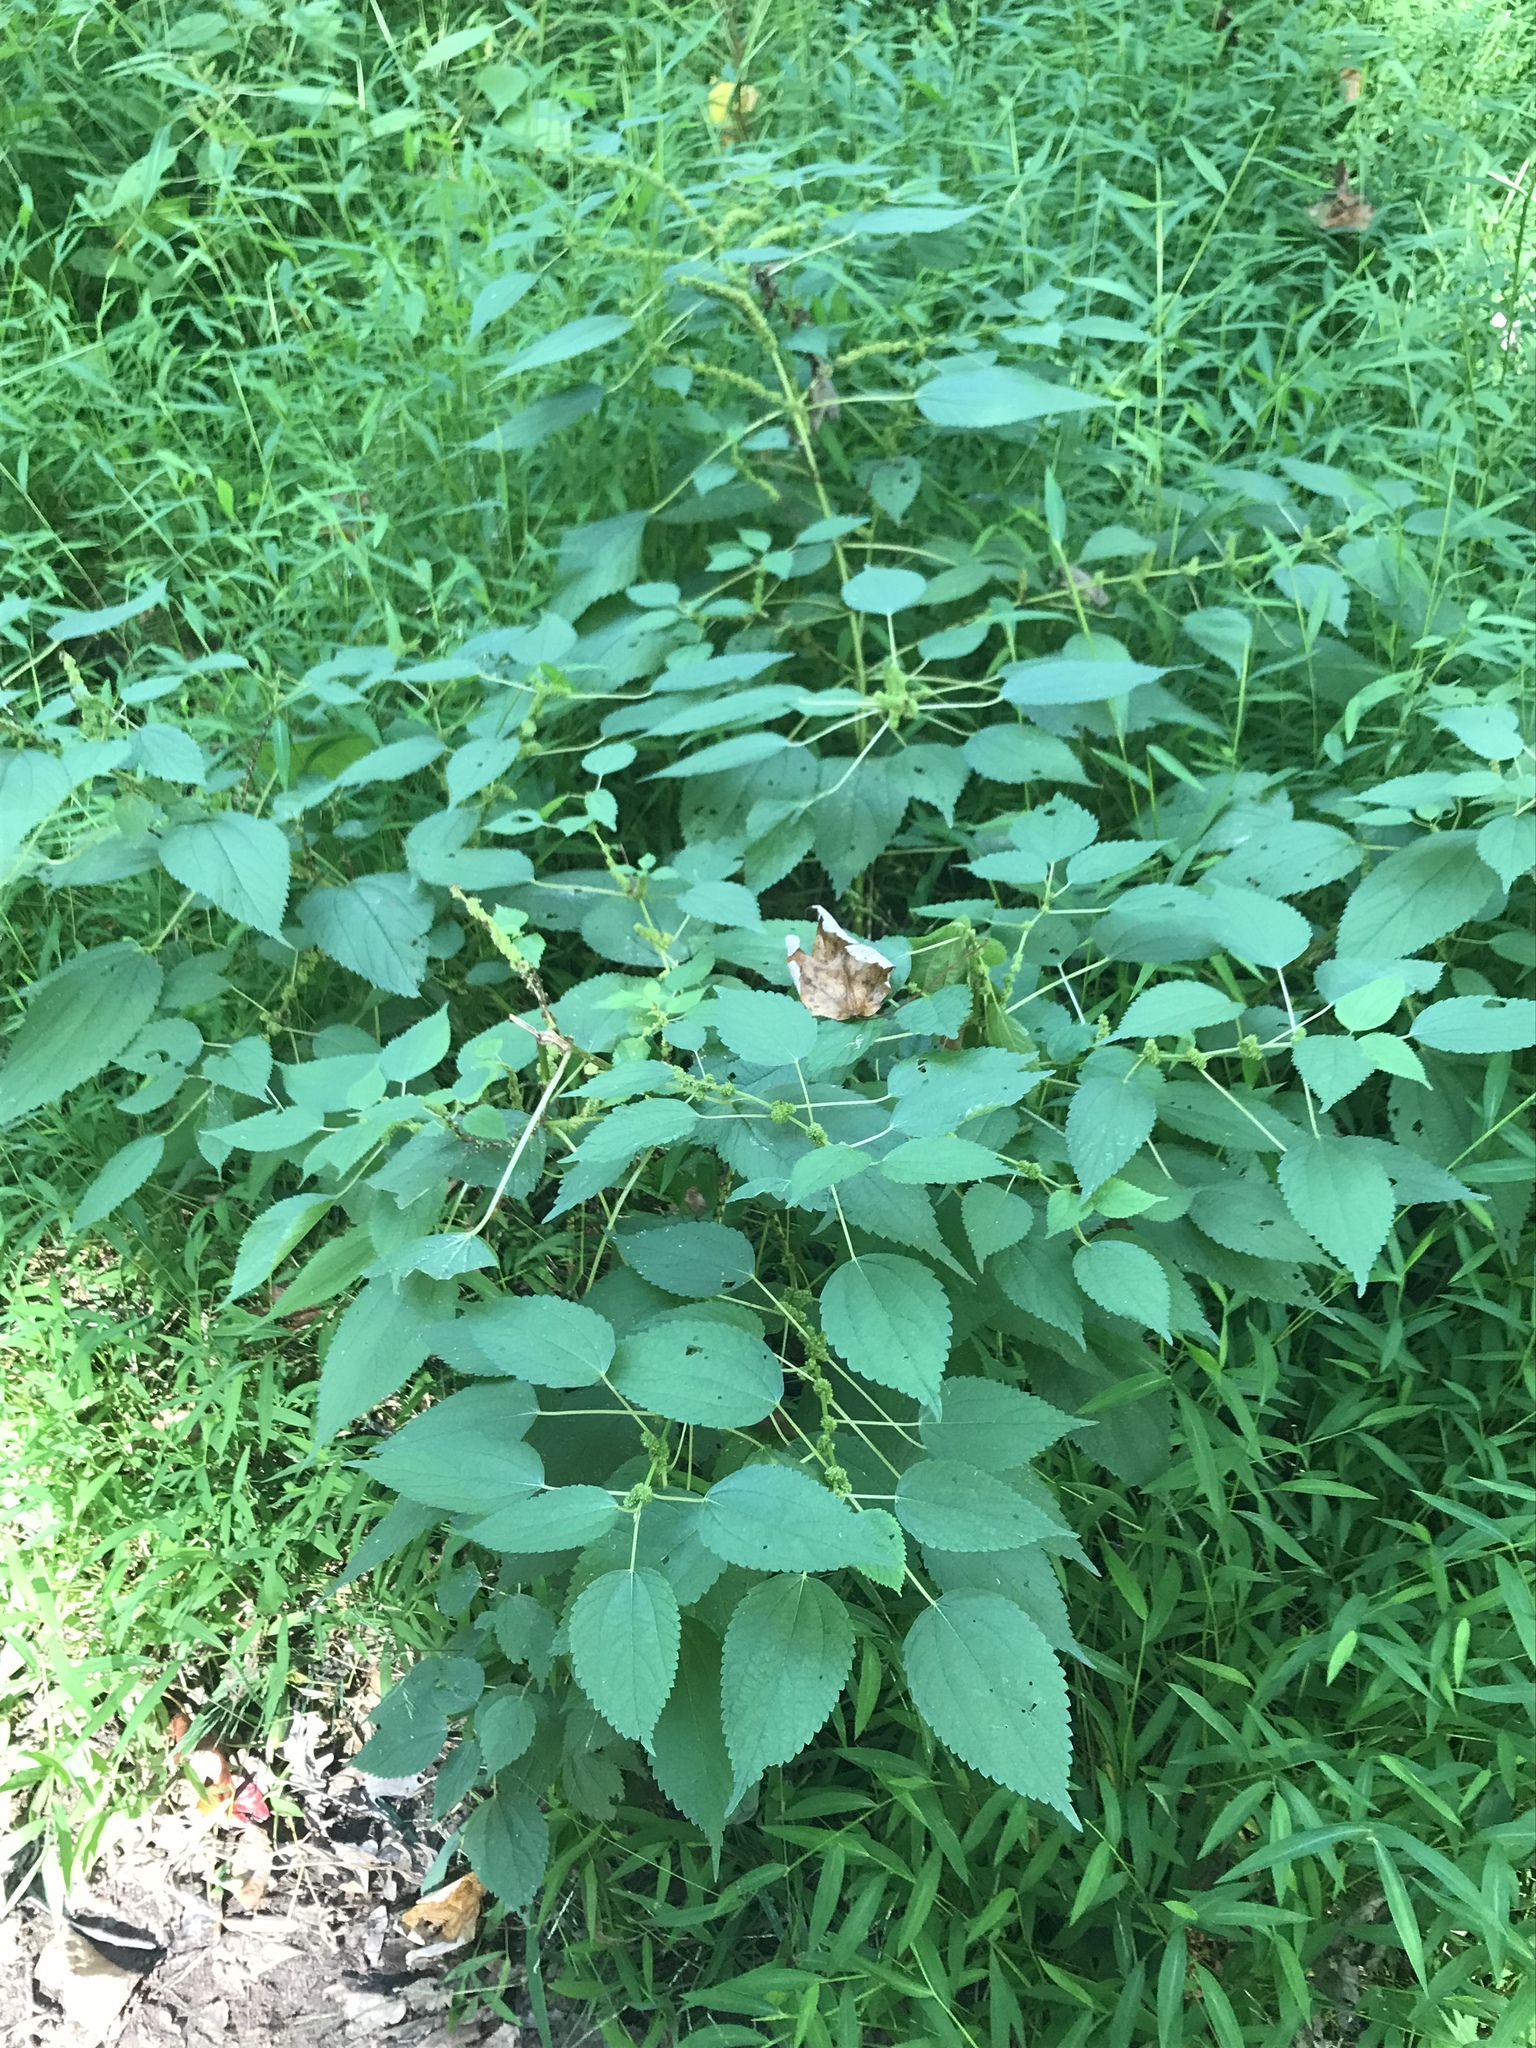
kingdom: Plantae
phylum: Tracheophyta
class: Magnoliopsida
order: Rosales
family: Urticaceae
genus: Boehmeria
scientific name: Boehmeria cylindrica
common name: Bog-hemp
